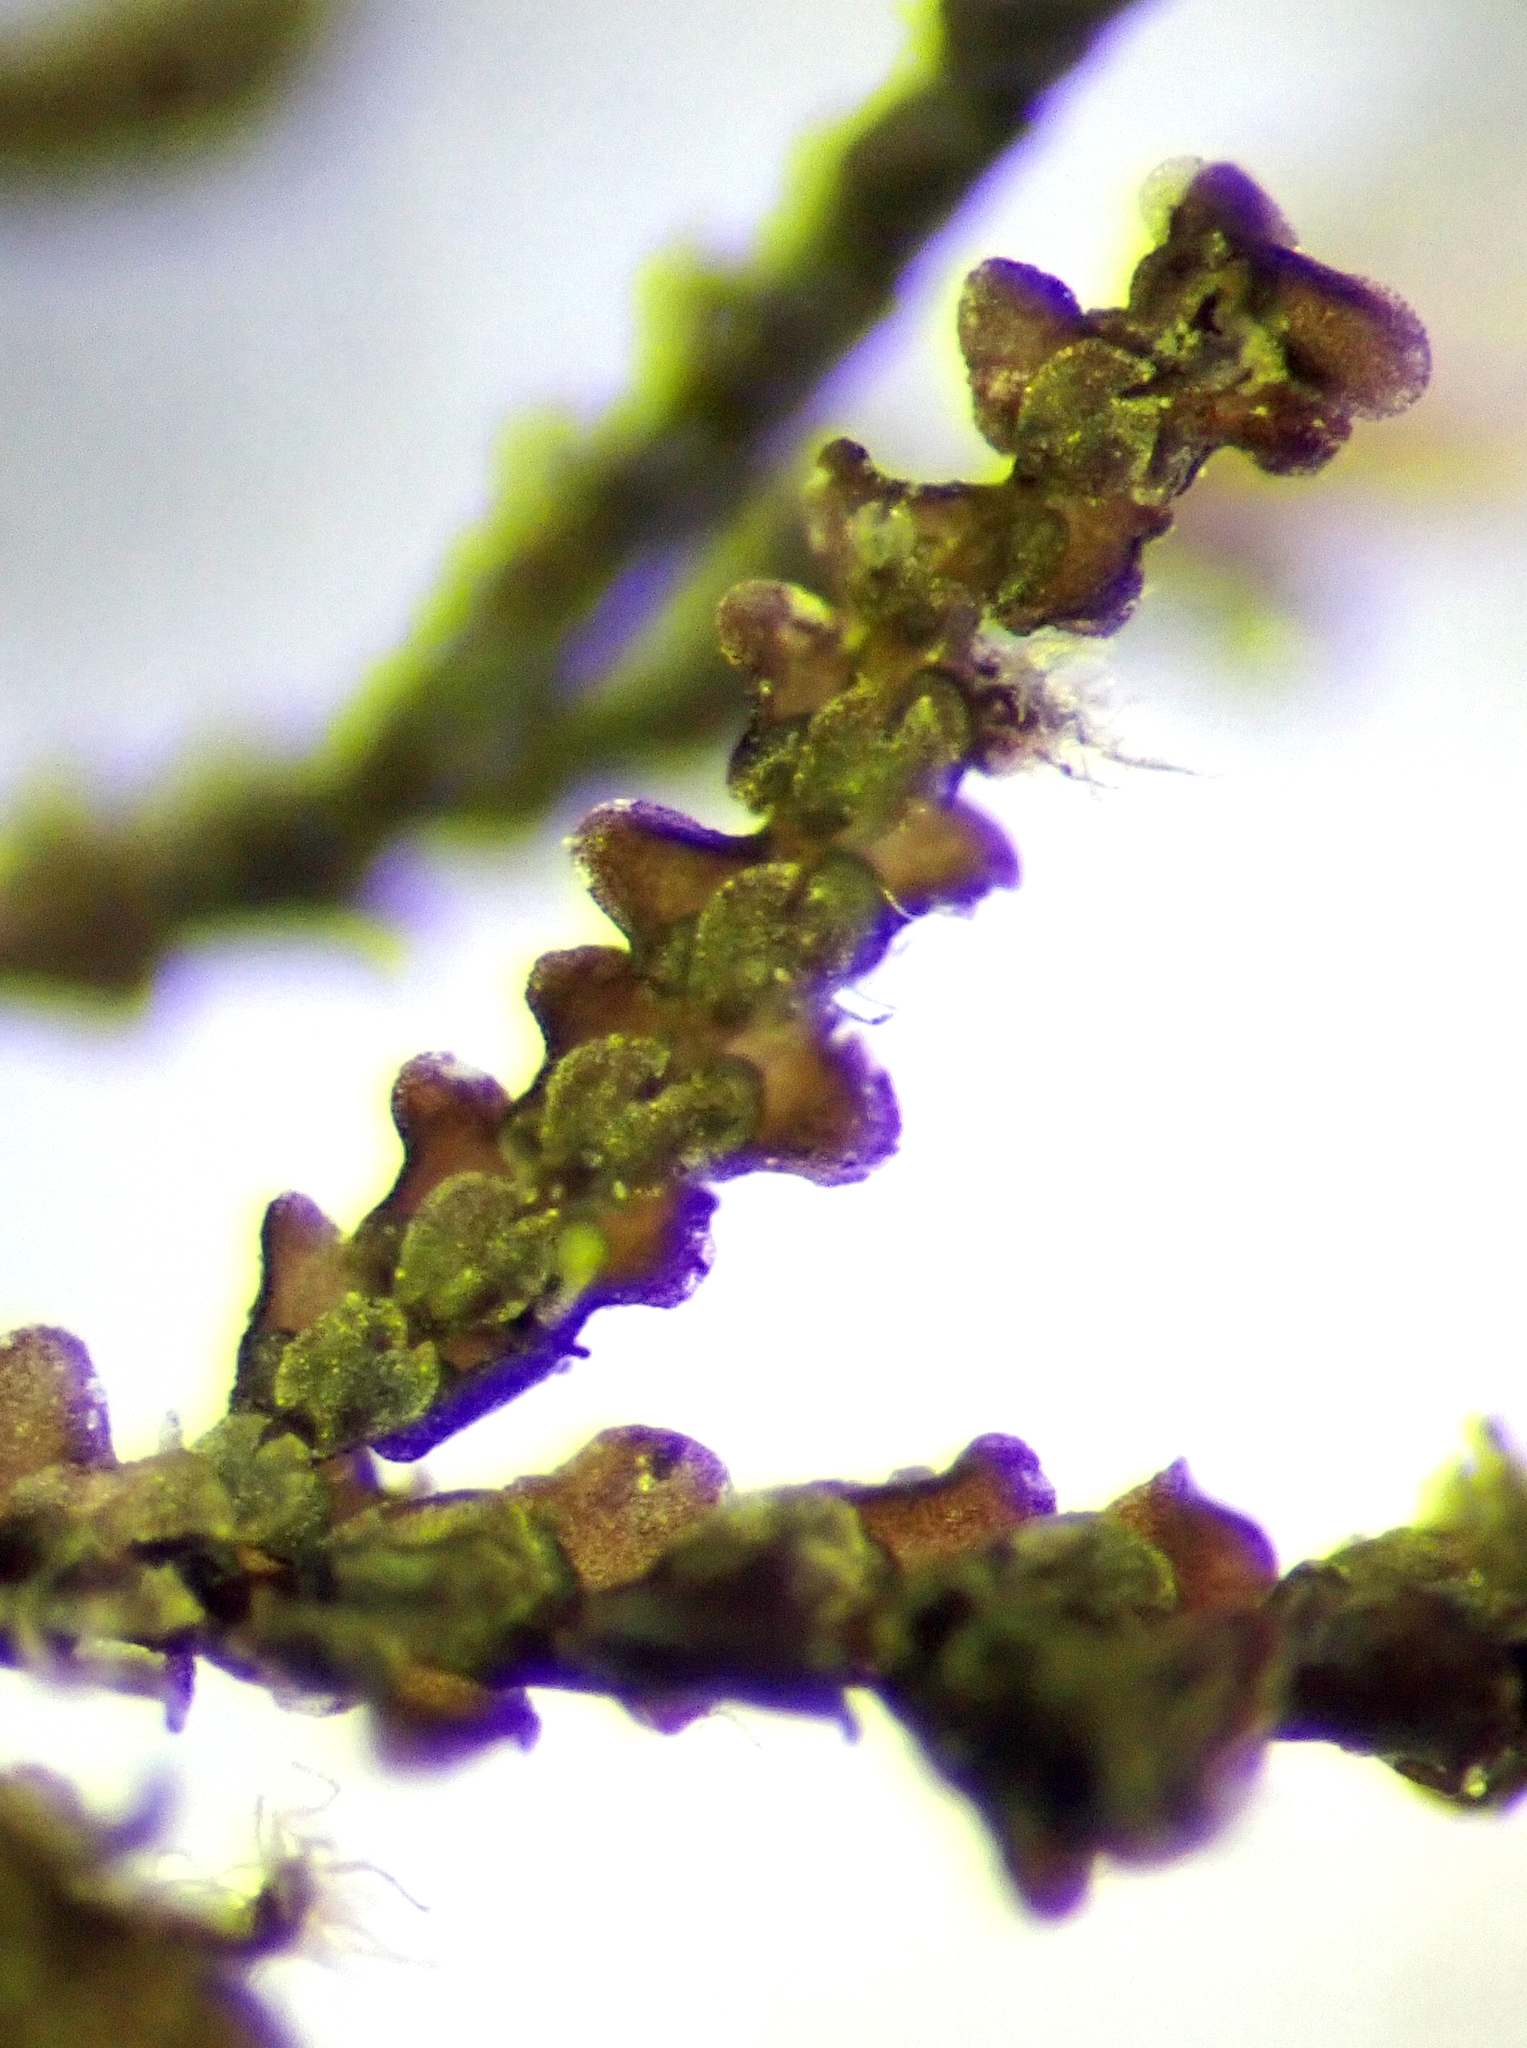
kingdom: Plantae
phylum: Marchantiophyta
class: Jungermanniopsida
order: Porellales
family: Frullaniaceae
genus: Frullania
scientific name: Frullania pycnantha
